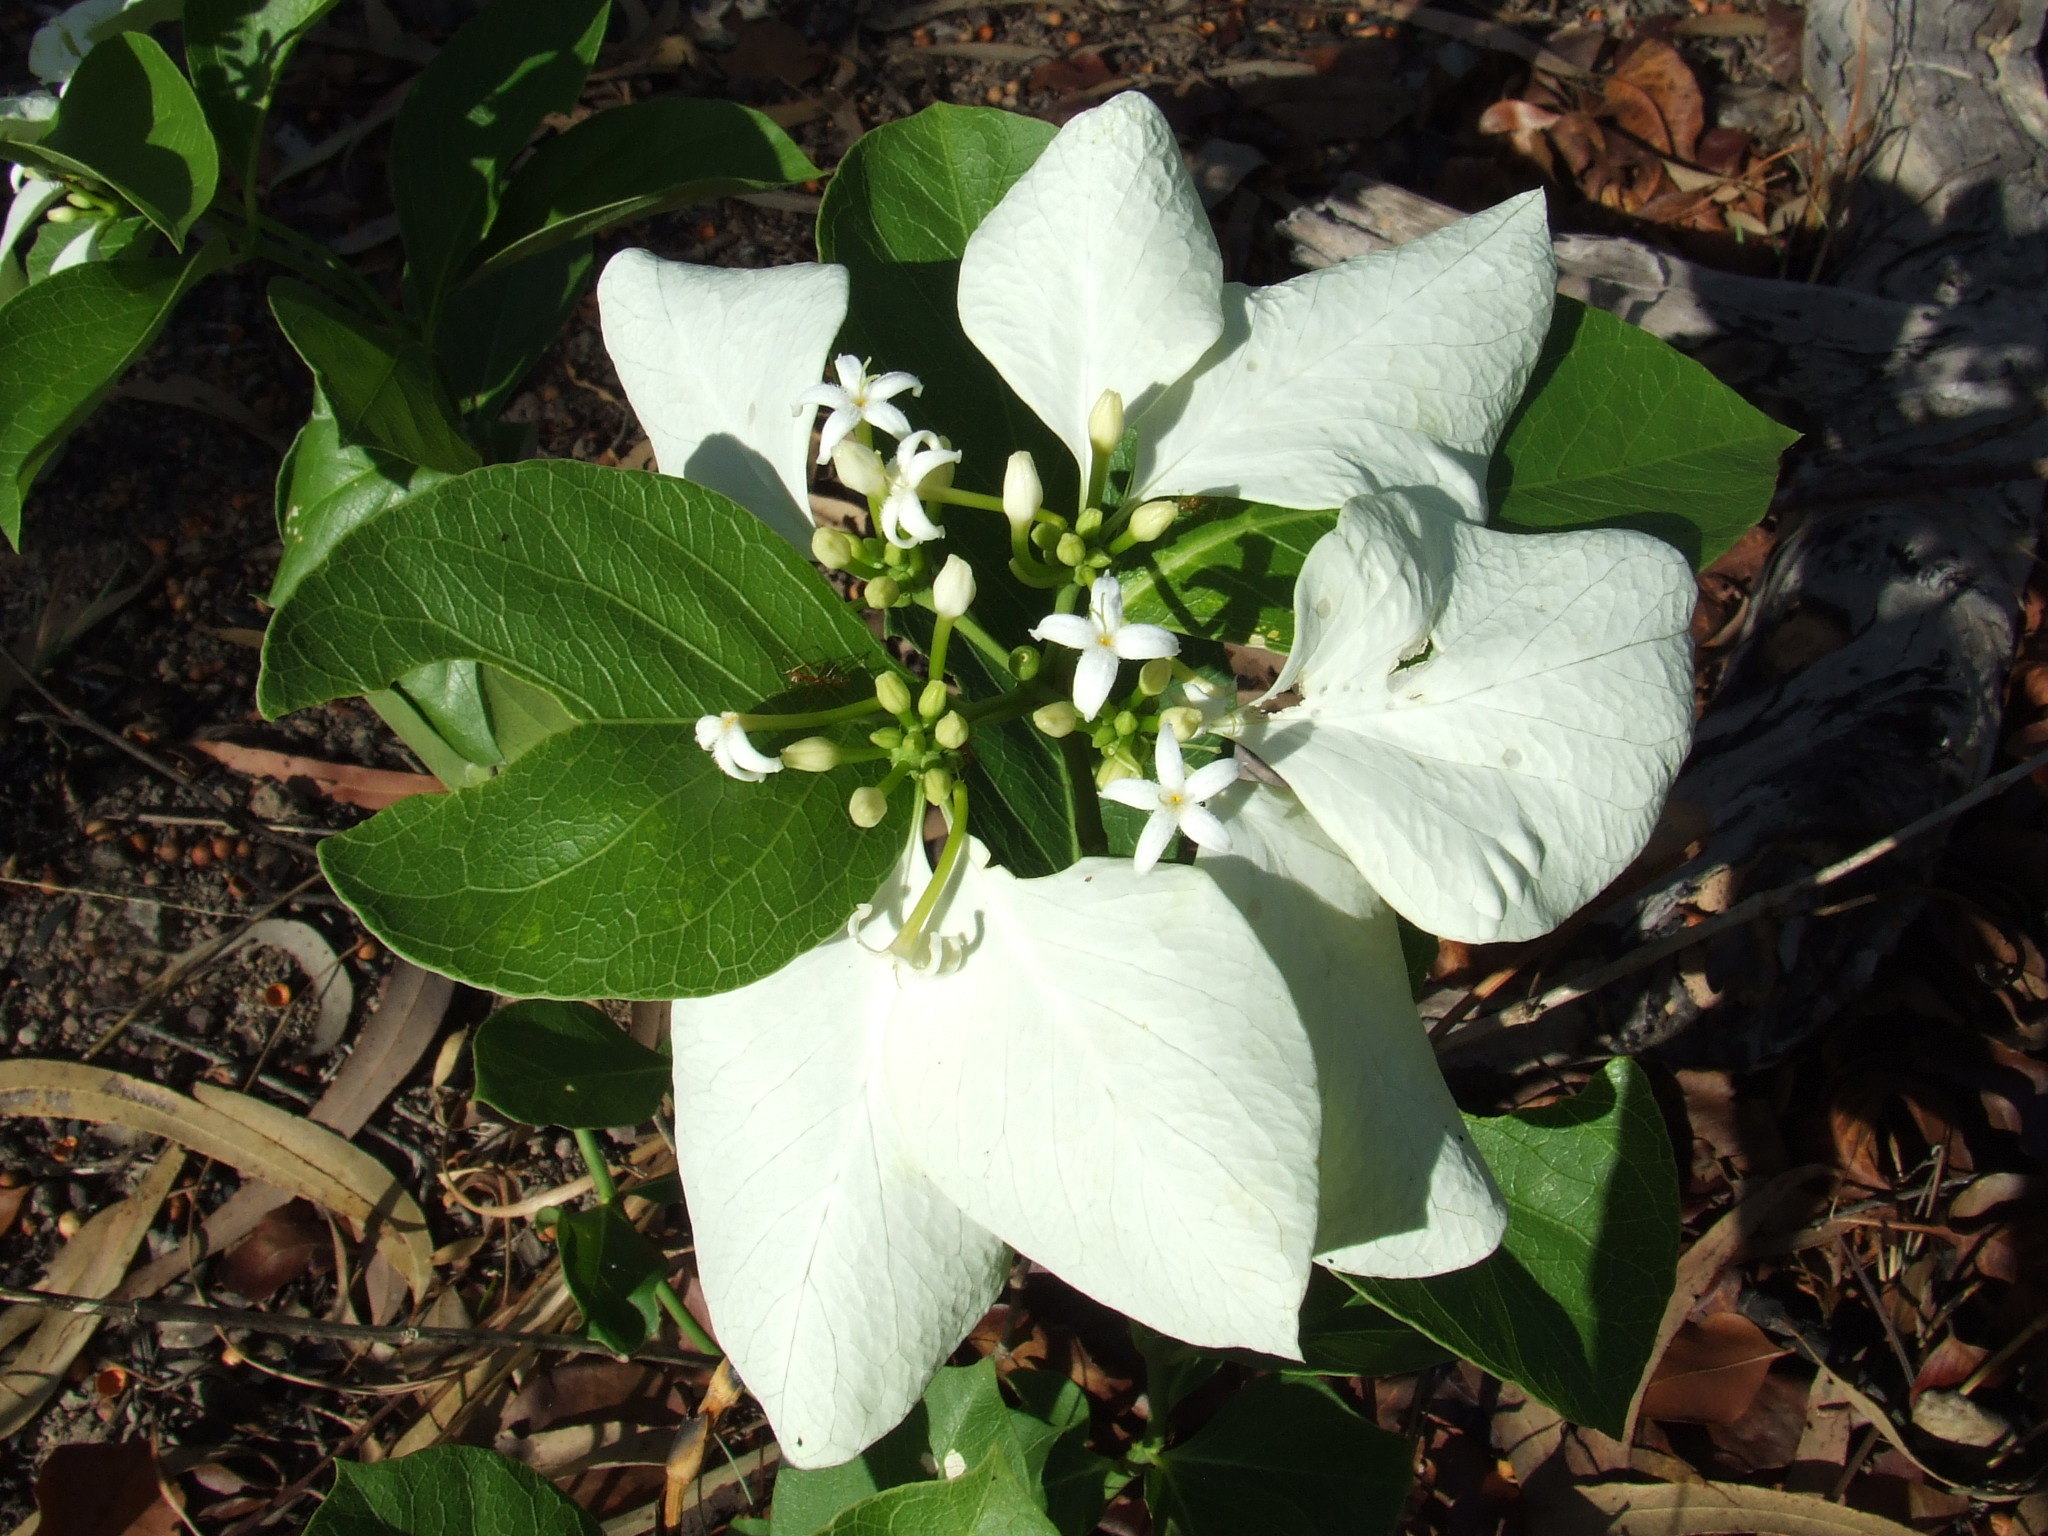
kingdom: Plantae
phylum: Tracheophyta
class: Magnoliopsida
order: Gentianales
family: Rubiaceae
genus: Coelospermum
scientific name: Coelospermum decipiens
